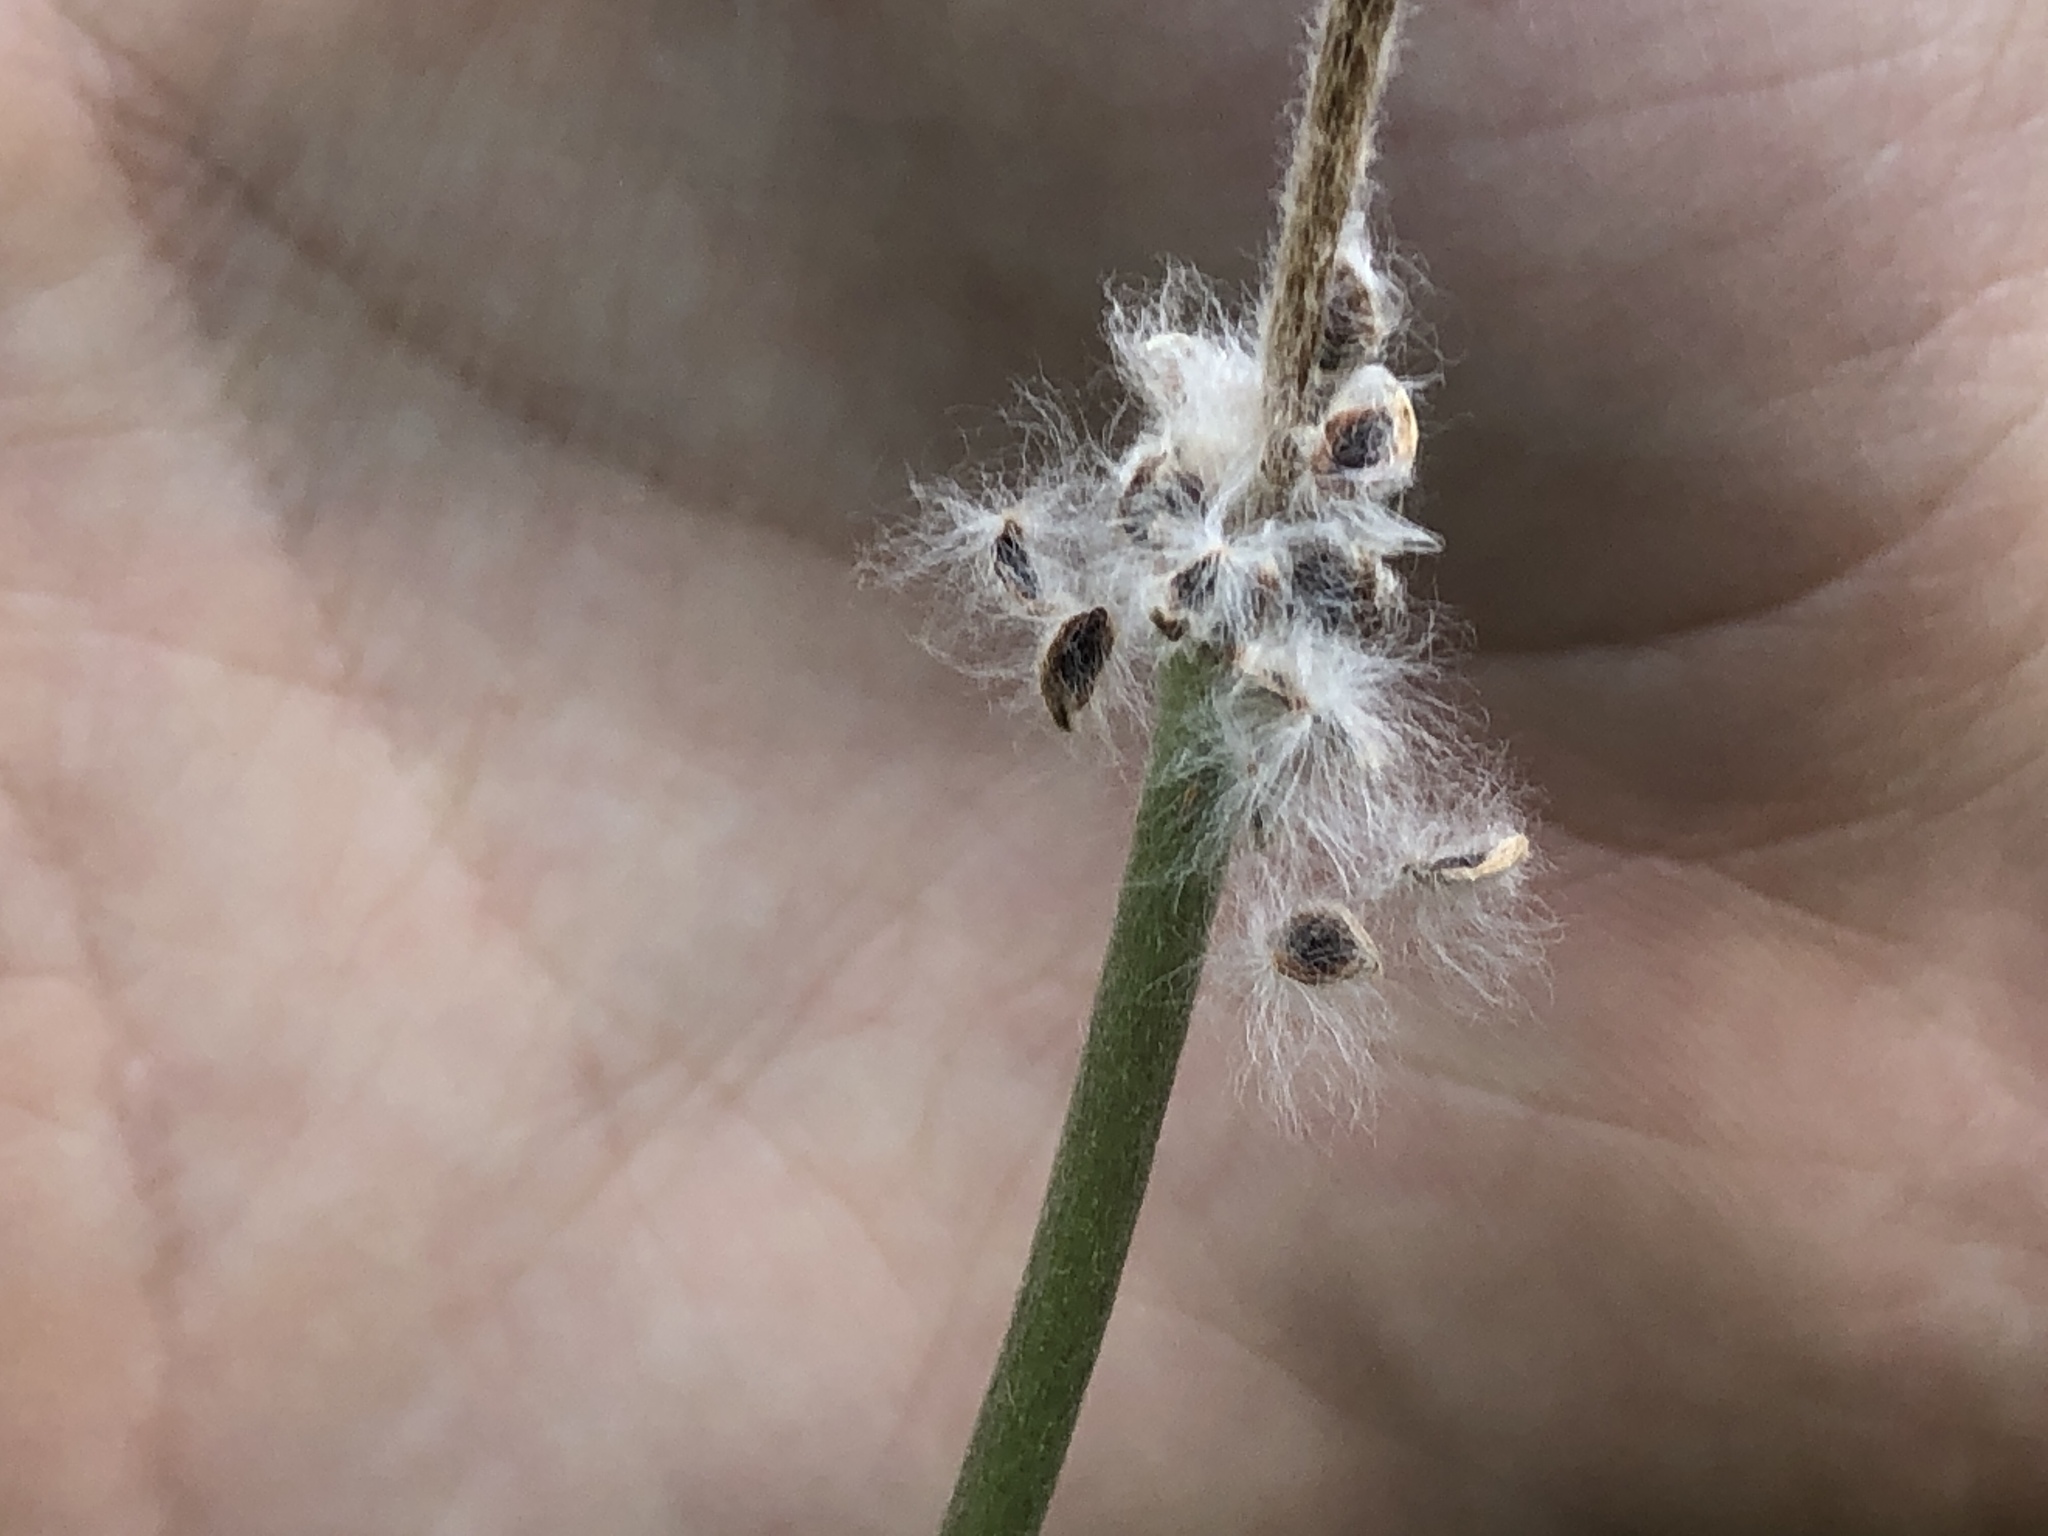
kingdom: Plantae
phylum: Tracheophyta
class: Magnoliopsida
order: Ranunculales
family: Ranunculaceae
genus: Anemone
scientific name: Anemone berlandieri
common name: Ten-petal anemone
